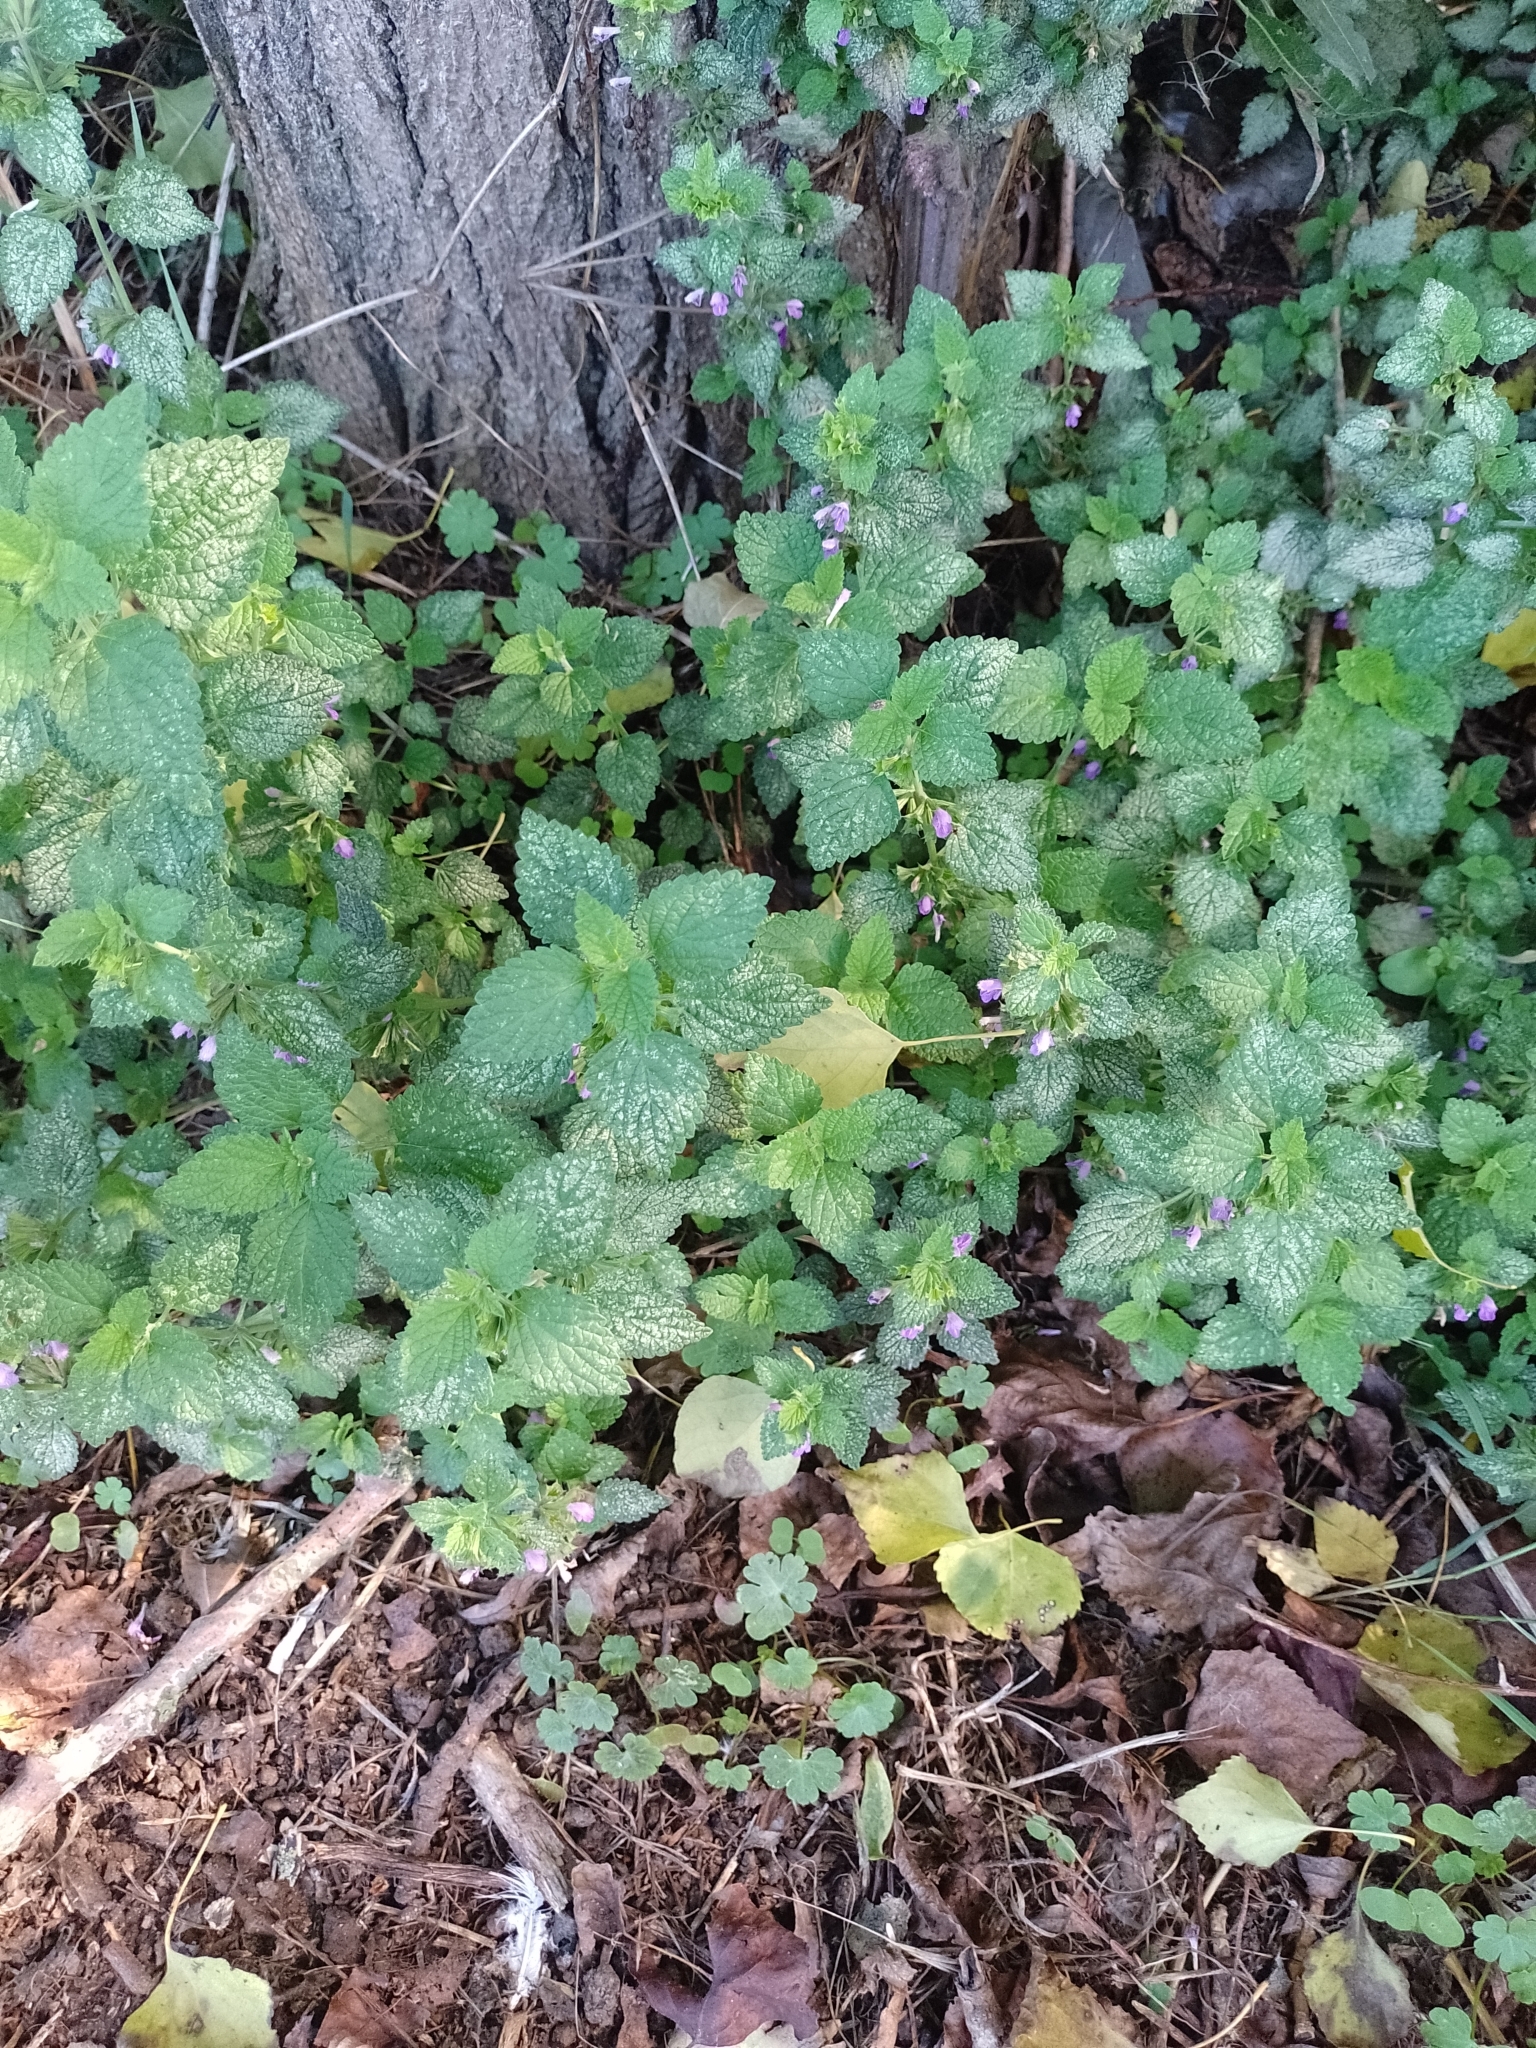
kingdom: Plantae
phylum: Tracheophyta
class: Magnoliopsida
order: Lamiales
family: Lamiaceae
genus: Ballota
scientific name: Ballota nigra
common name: Black horehound
